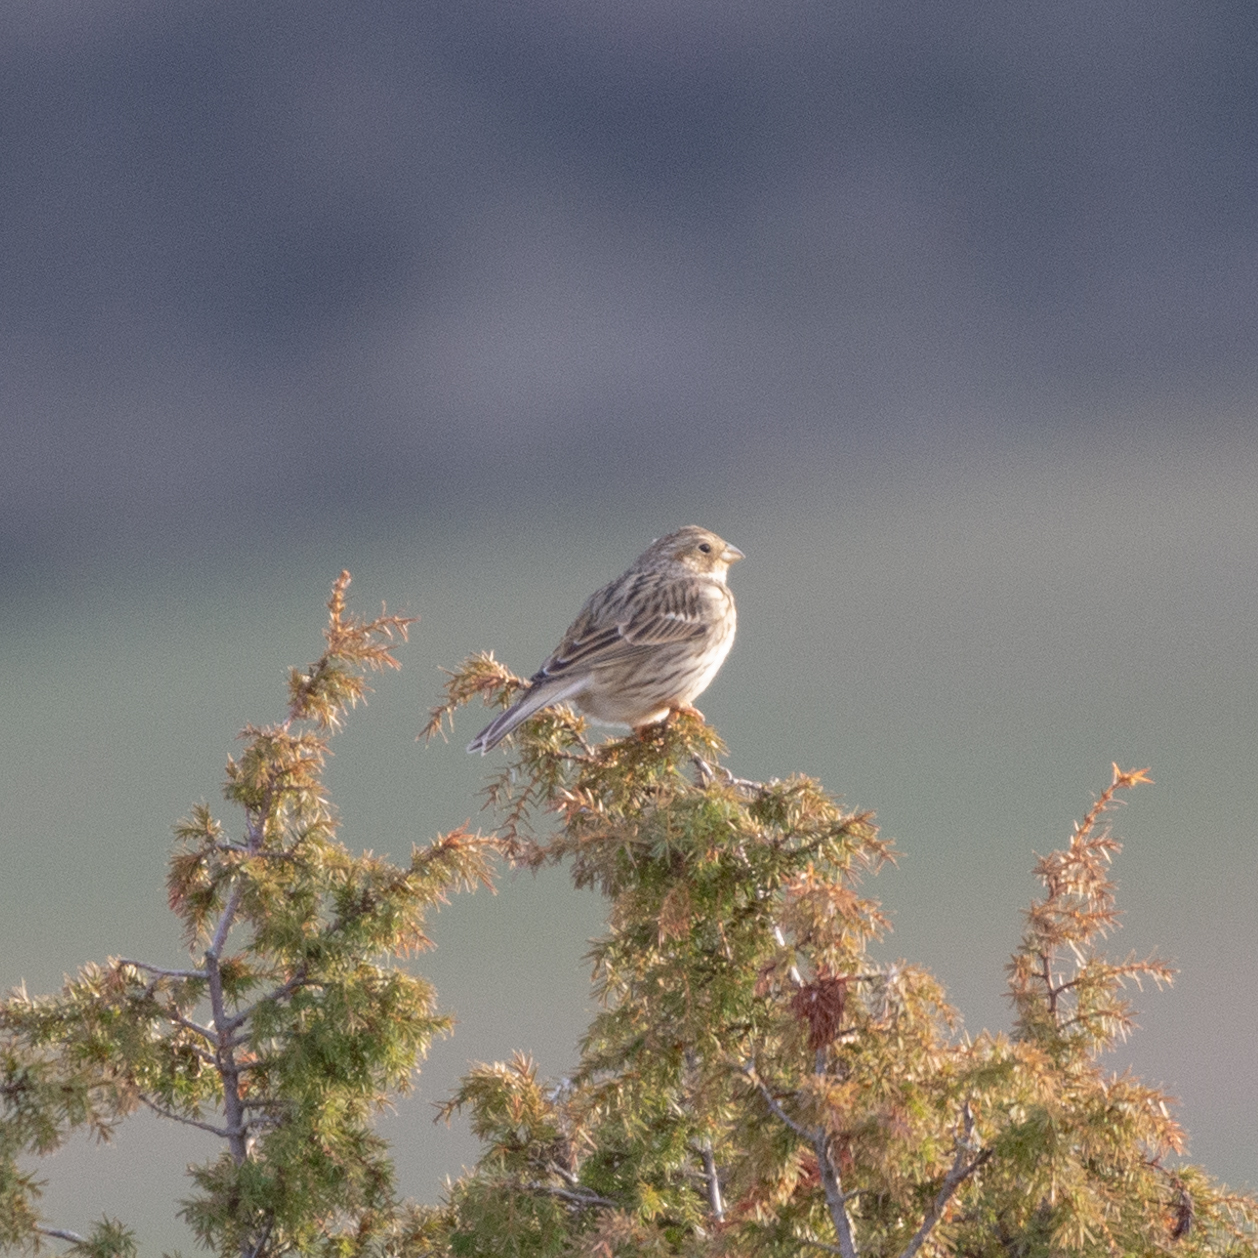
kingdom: Animalia
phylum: Chordata
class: Aves
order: Passeriformes
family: Emberizidae
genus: Emberiza
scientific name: Emberiza calandra
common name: Corn bunting
